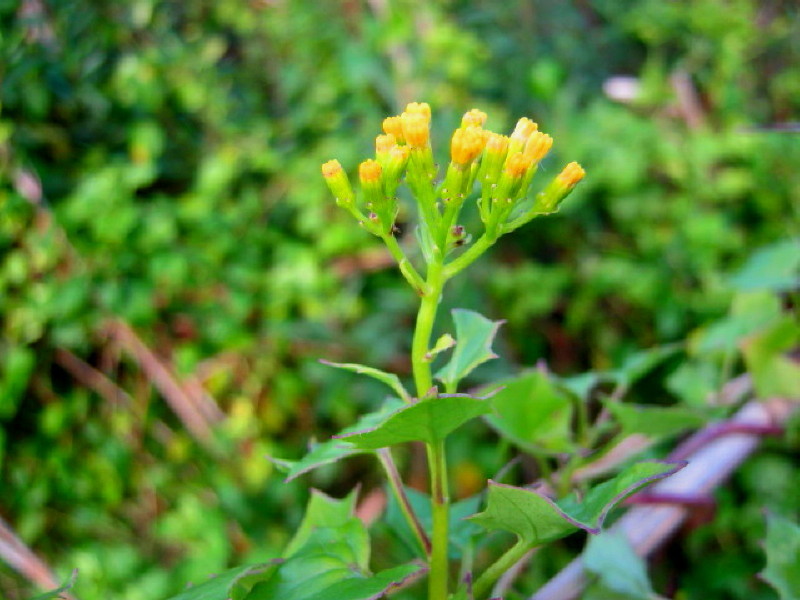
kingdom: Plantae
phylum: Tracheophyta
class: Magnoliopsida
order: Asterales
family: Asteraceae
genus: Delairea
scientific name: Delairea odorata
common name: Cape-ivy
